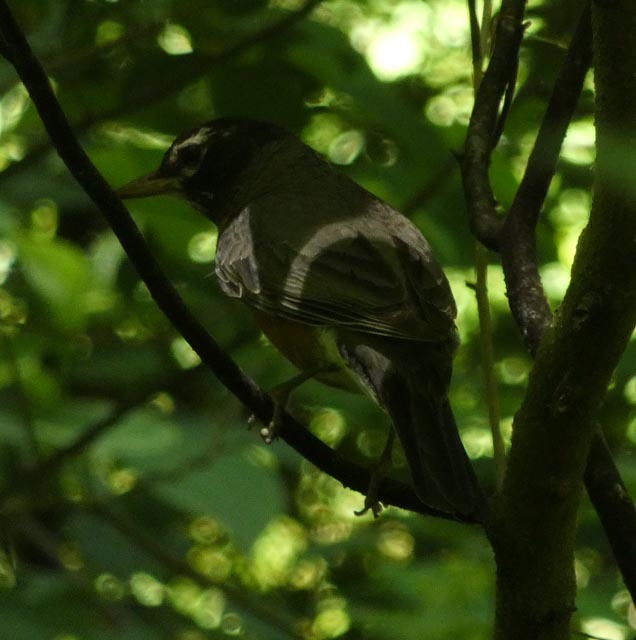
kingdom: Animalia
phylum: Chordata
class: Aves
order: Passeriformes
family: Turdidae
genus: Turdus
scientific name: Turdus migratorius
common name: American robin
